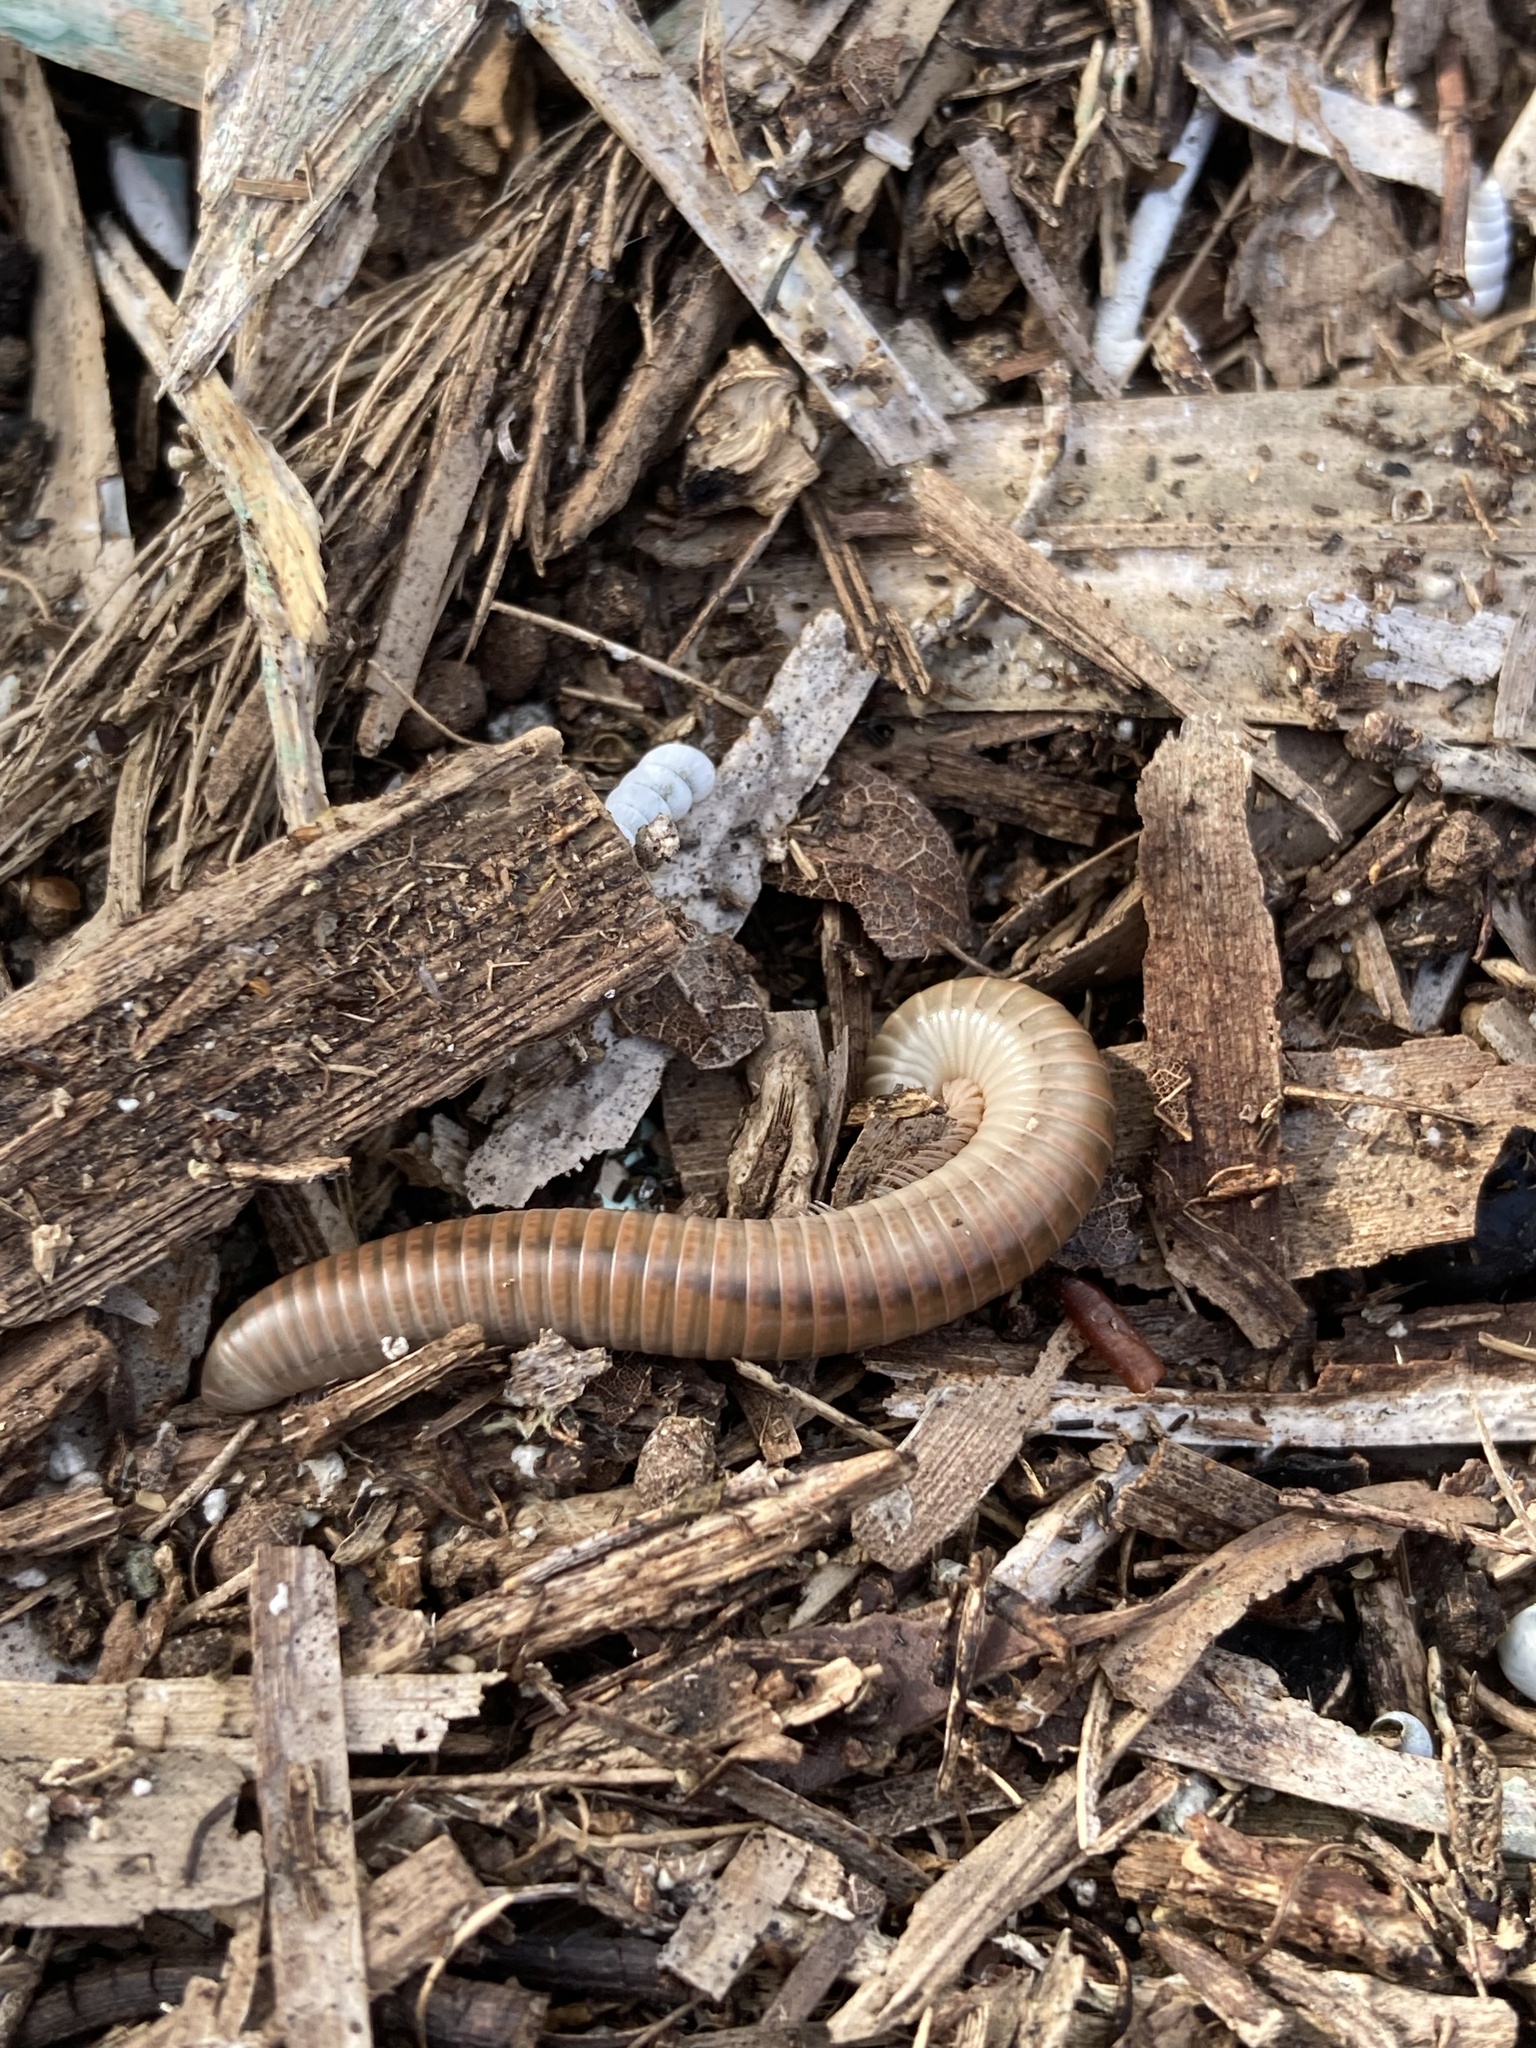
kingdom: Animalia
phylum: Arthropoda
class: Diplopoda
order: Spirobolida
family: Spirobolidae
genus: Chicobolus
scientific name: Chicobolus spinigerus
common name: Florida ivory millipede
